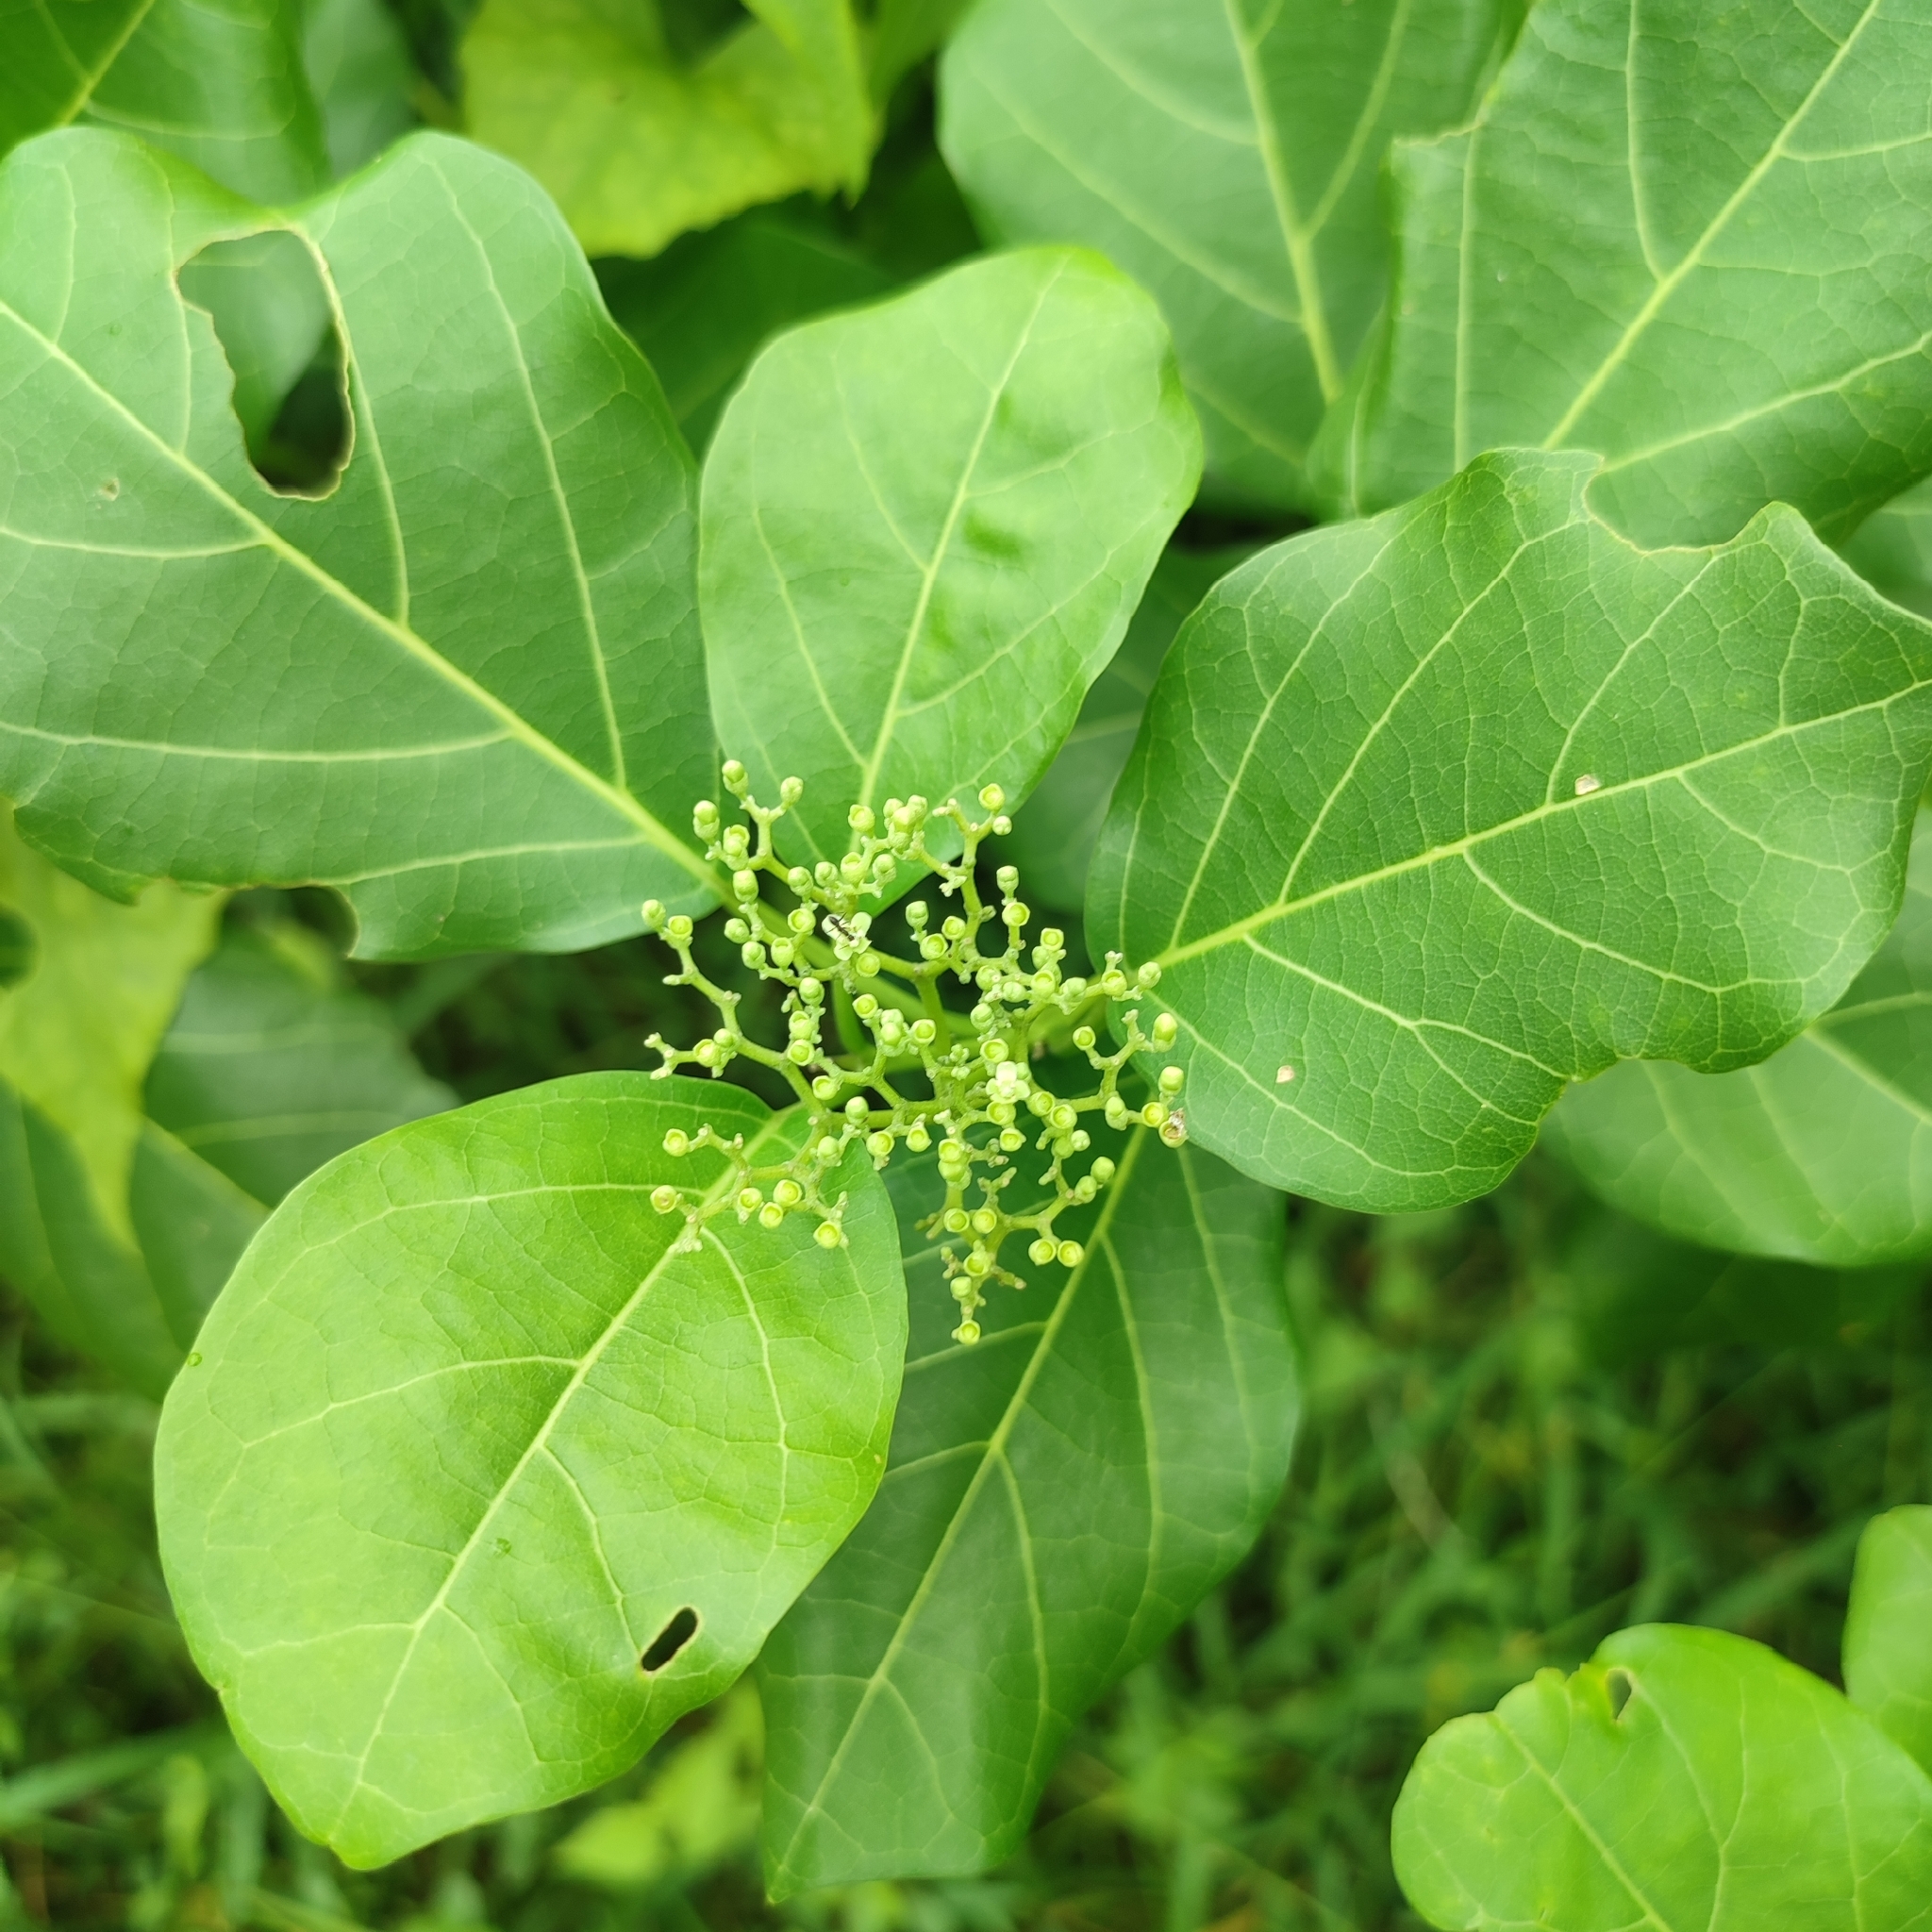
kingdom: Plantae
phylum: Tracheophyta
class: Magnoliopsida
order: Lamiales
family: Lamiaceae
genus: Premna
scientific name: Premna serratifolia
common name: Bastard guelder
